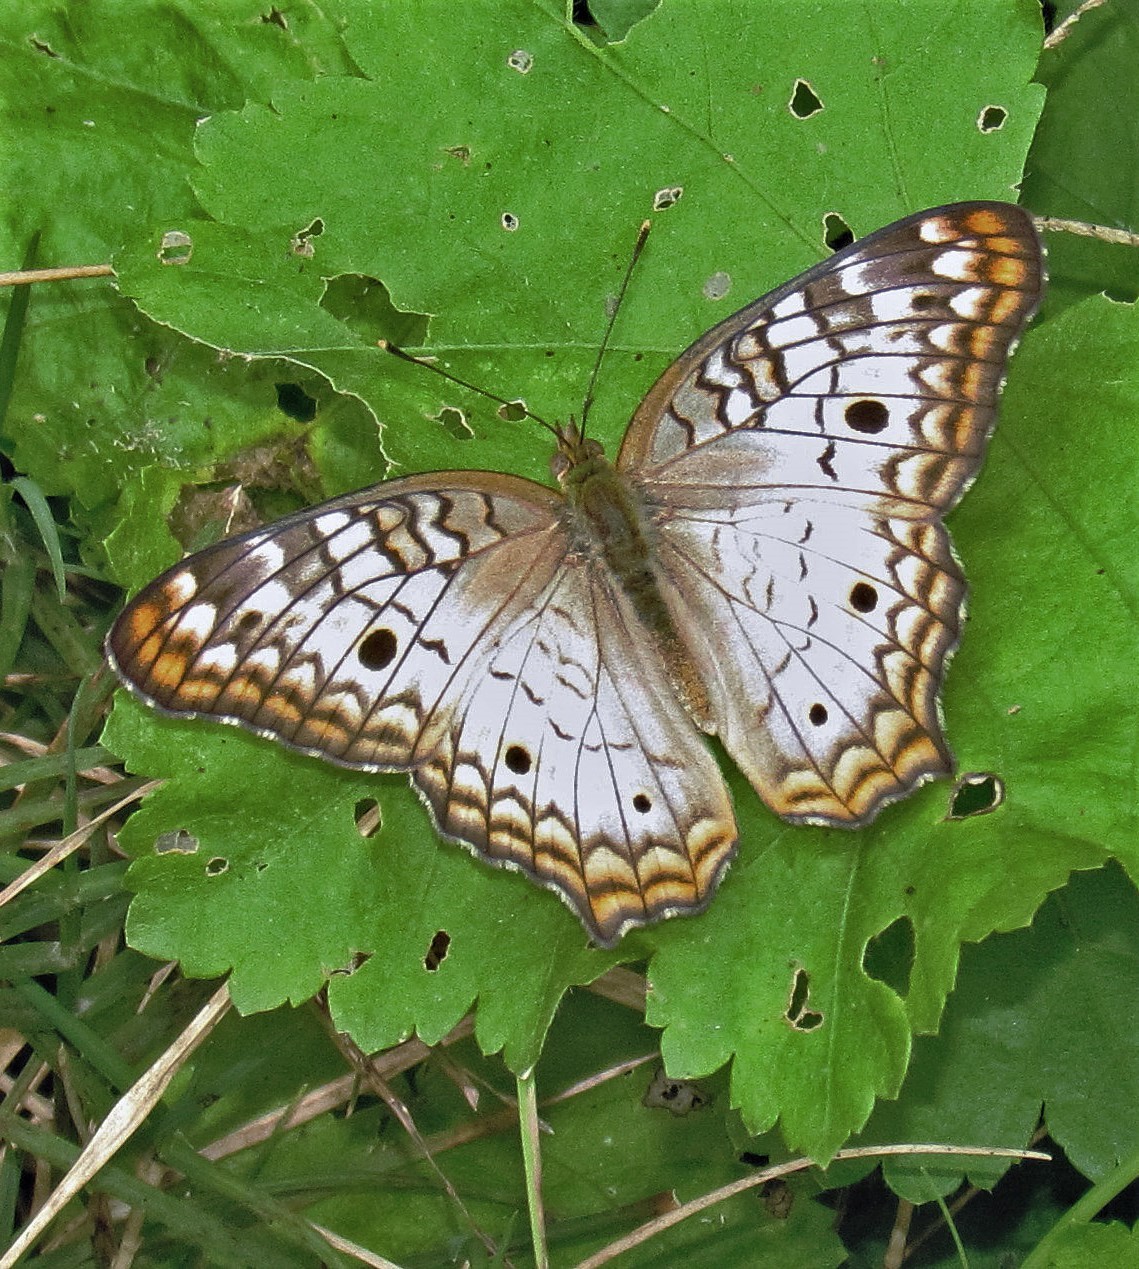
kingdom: Animalia
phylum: Arthropoda
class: Insecta
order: Lepidoptera
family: Nymphalidae
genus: Anartia
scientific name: Anartia jatrophae
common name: White peacock
